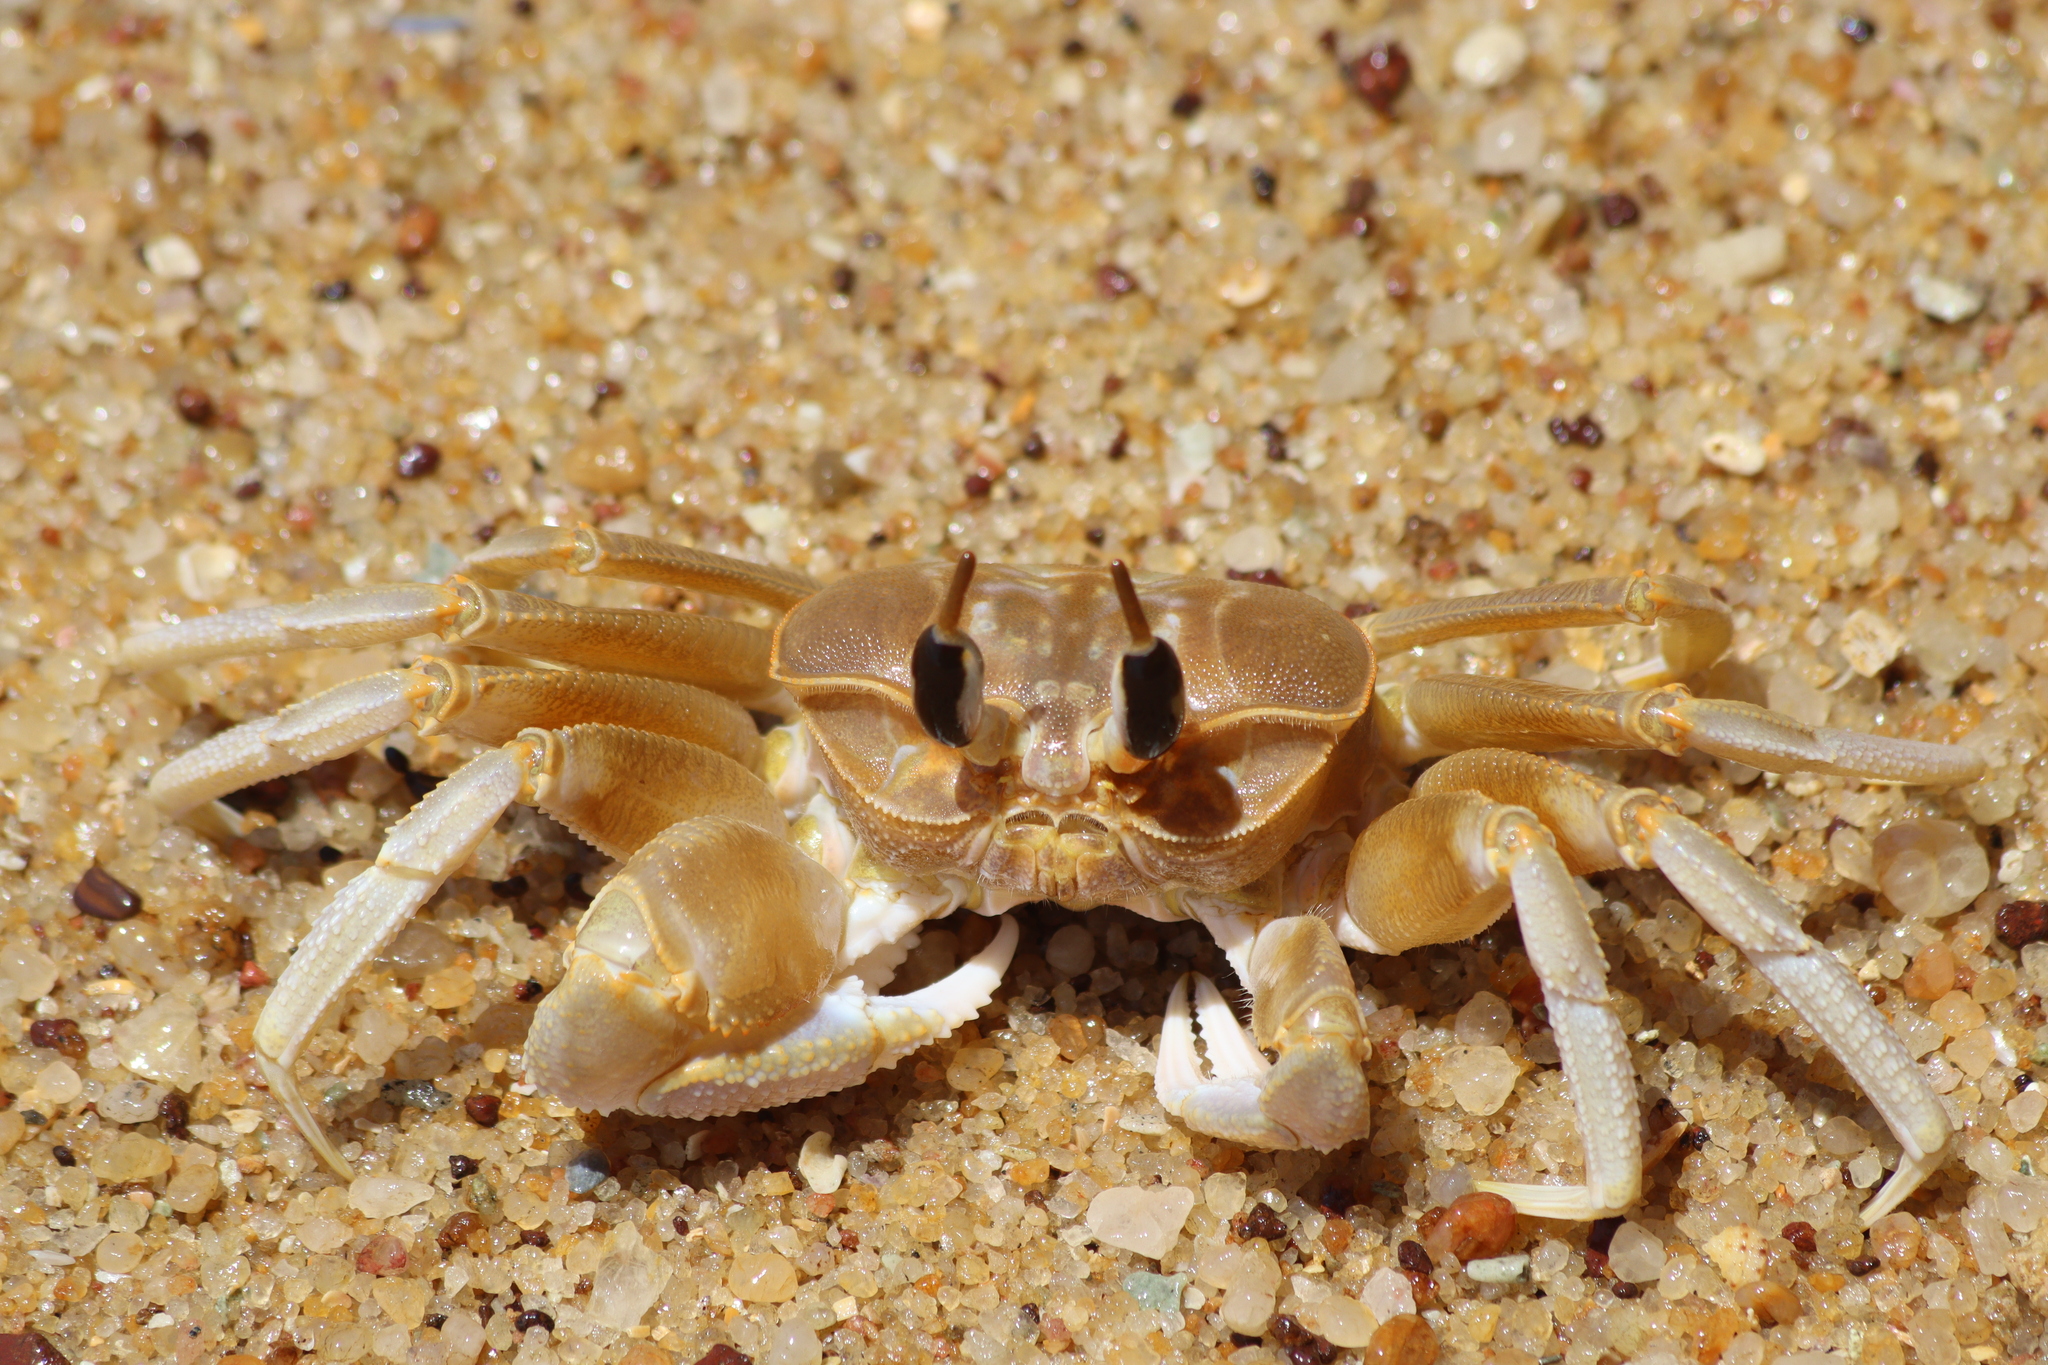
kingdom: Animalia
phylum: Arthropoda
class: Malacostraca
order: Decapoda
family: Ocypodidae
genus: Ocypode
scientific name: Ocypode brevicornis
